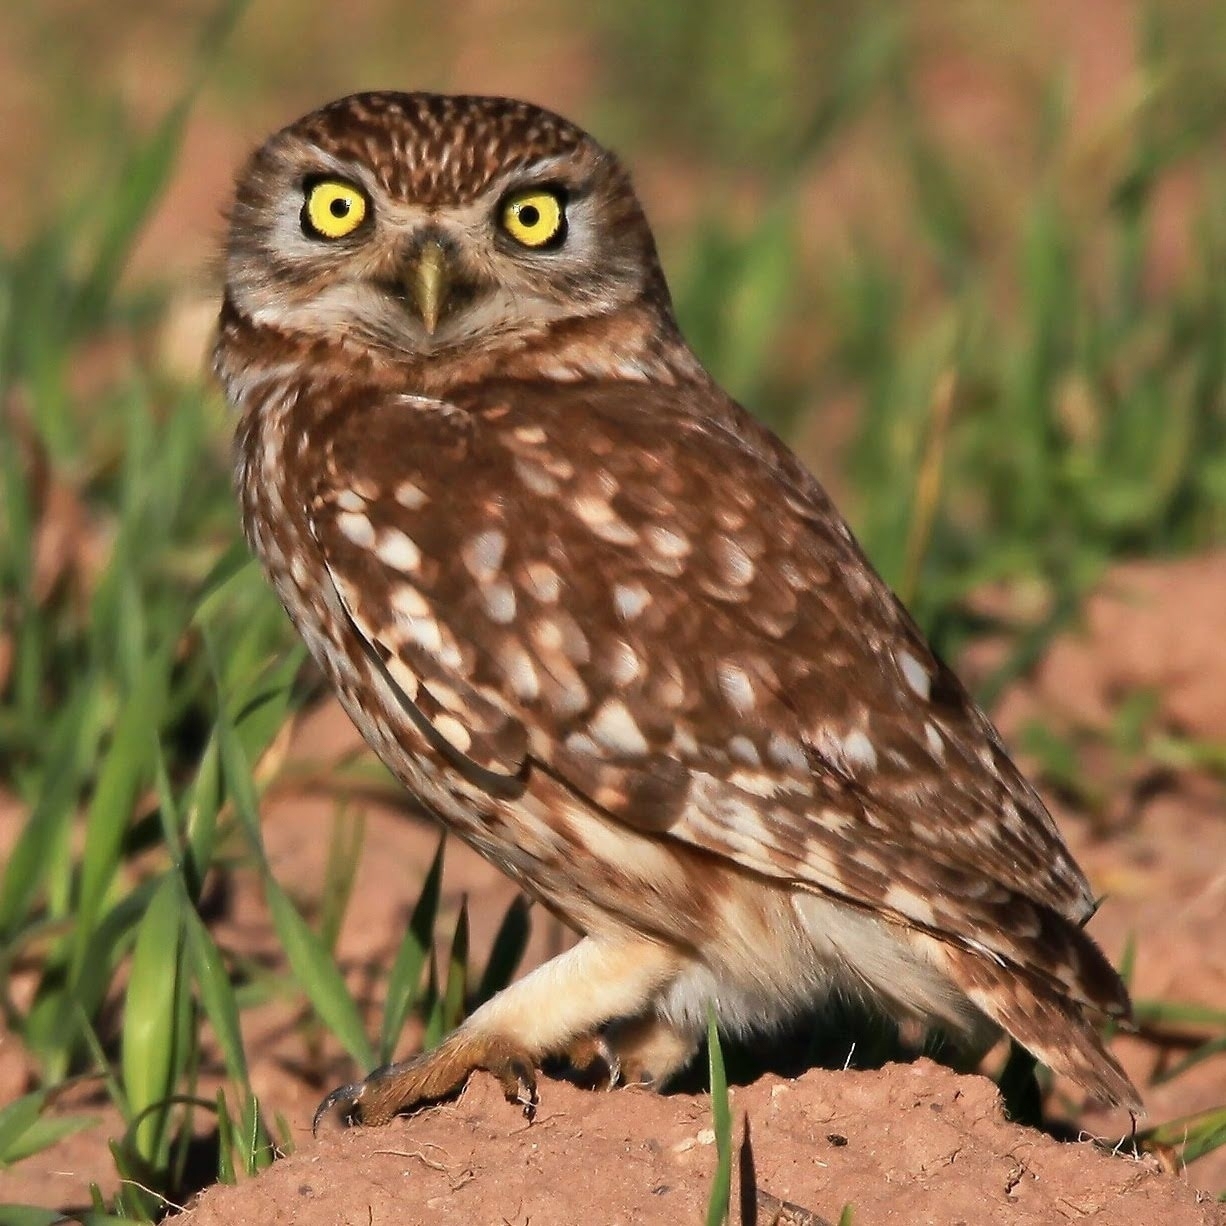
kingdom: Animalia
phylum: Chordata
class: Aves
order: Strigiformes
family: Strigidae
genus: Athene
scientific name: Athene noctua
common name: Little owl
